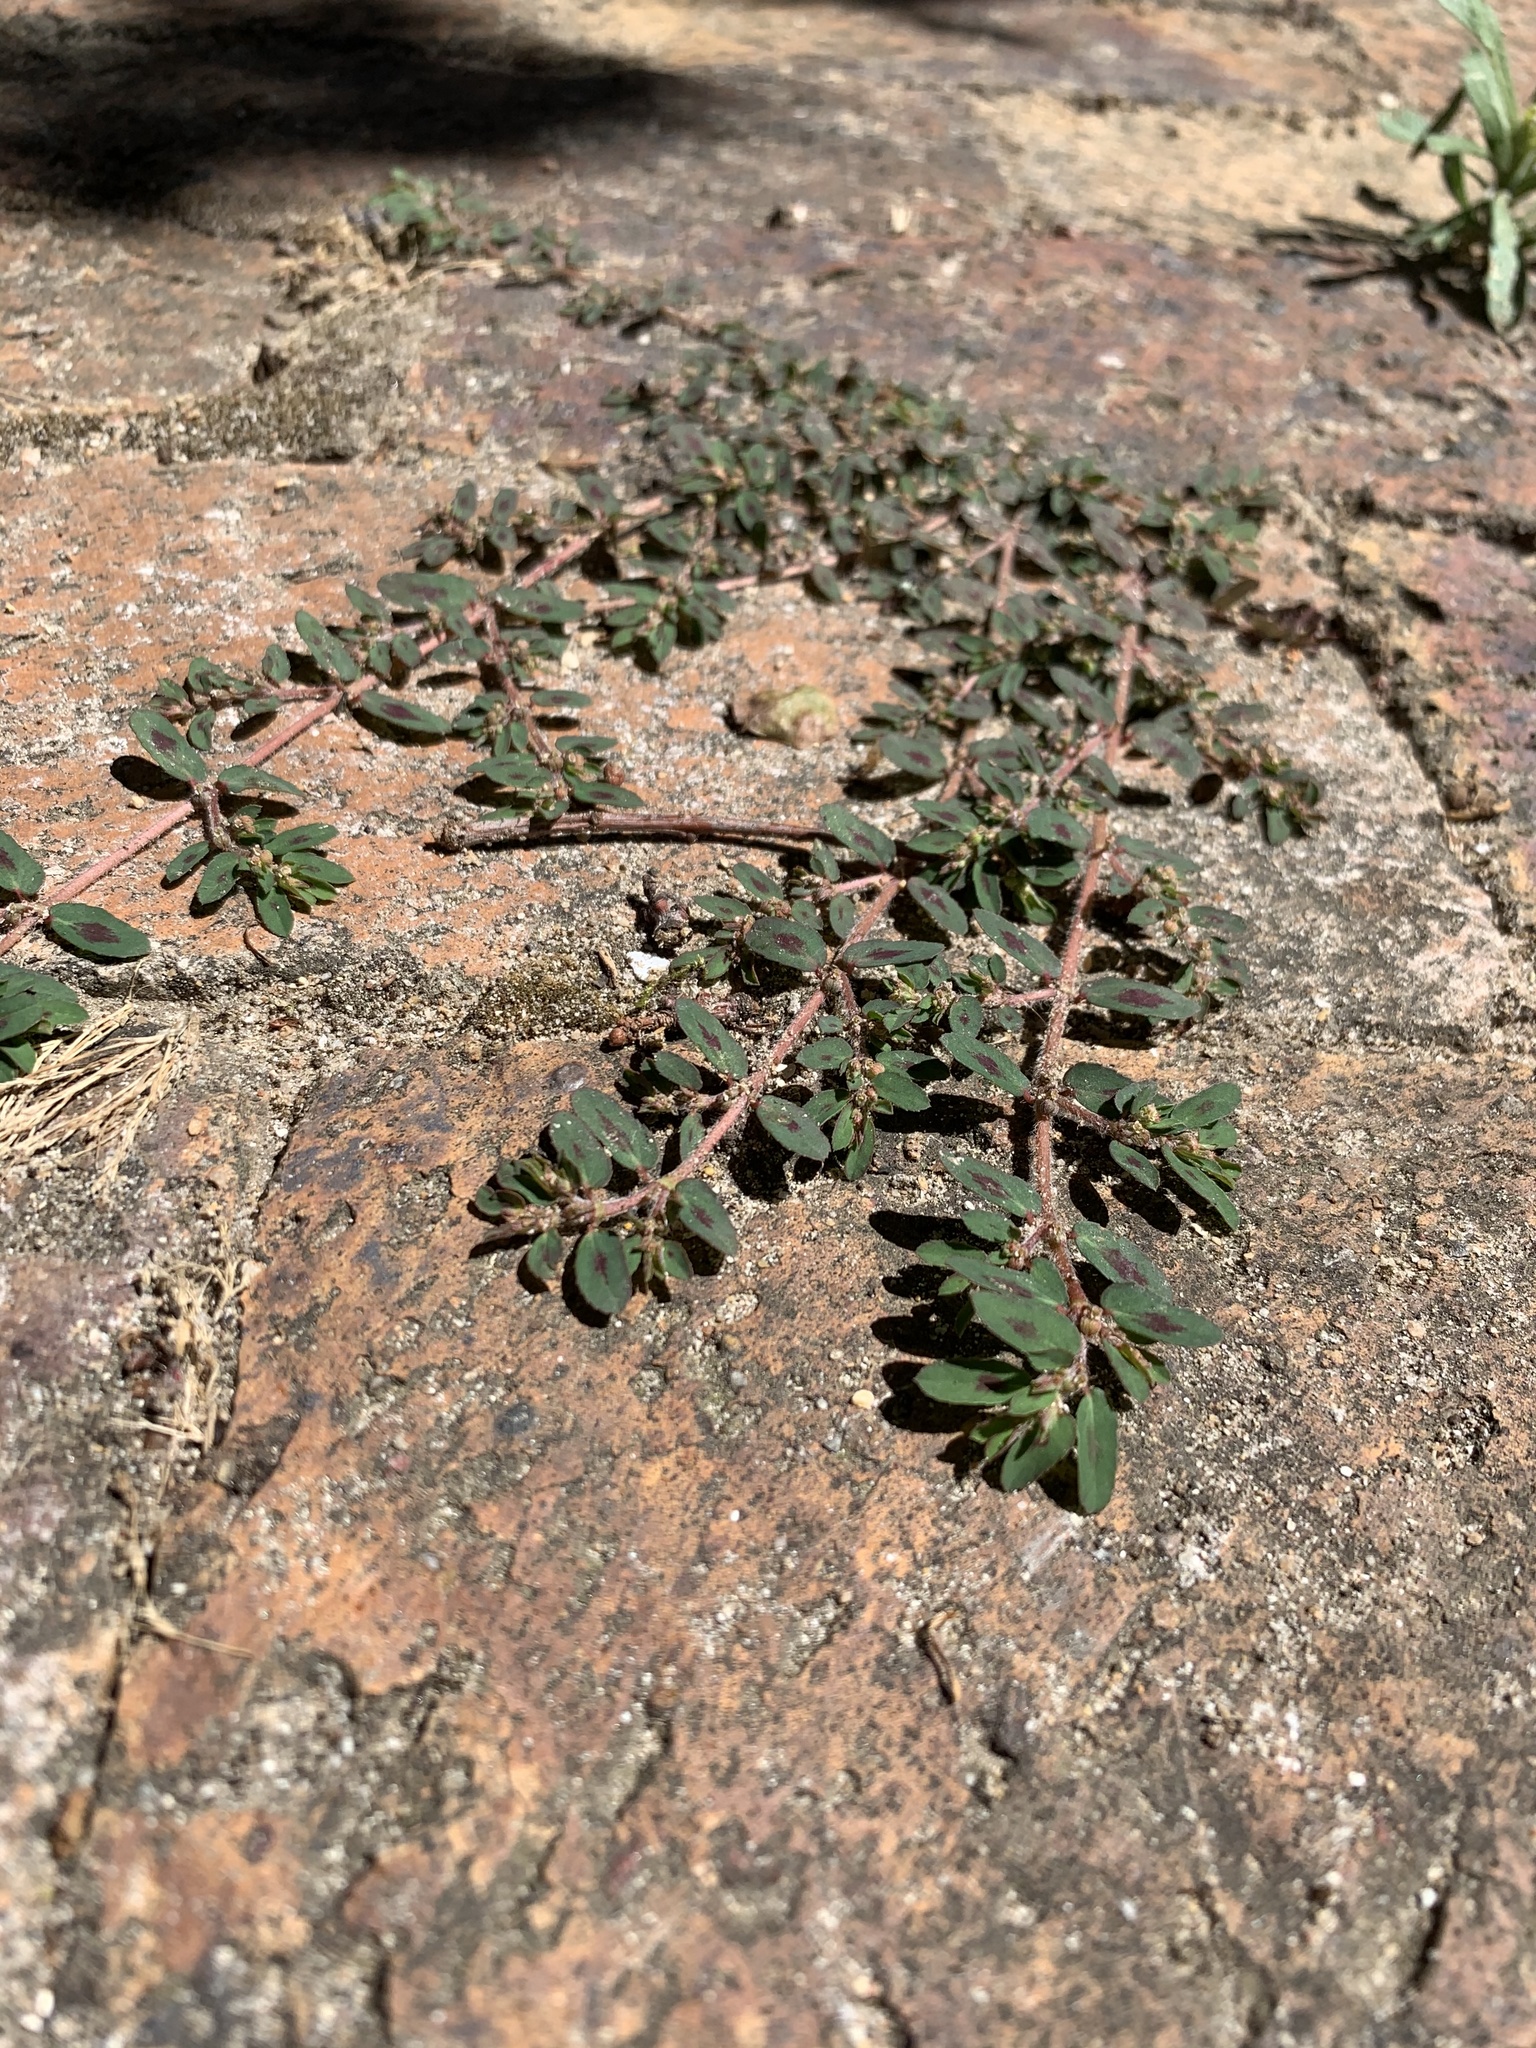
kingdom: Plantae
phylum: Tracheophyta
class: Magnoliopsida
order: Malpighiales
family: Euphorbiaceae
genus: Euphorbia
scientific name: Euphorbia maculata
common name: Spotted spurge
